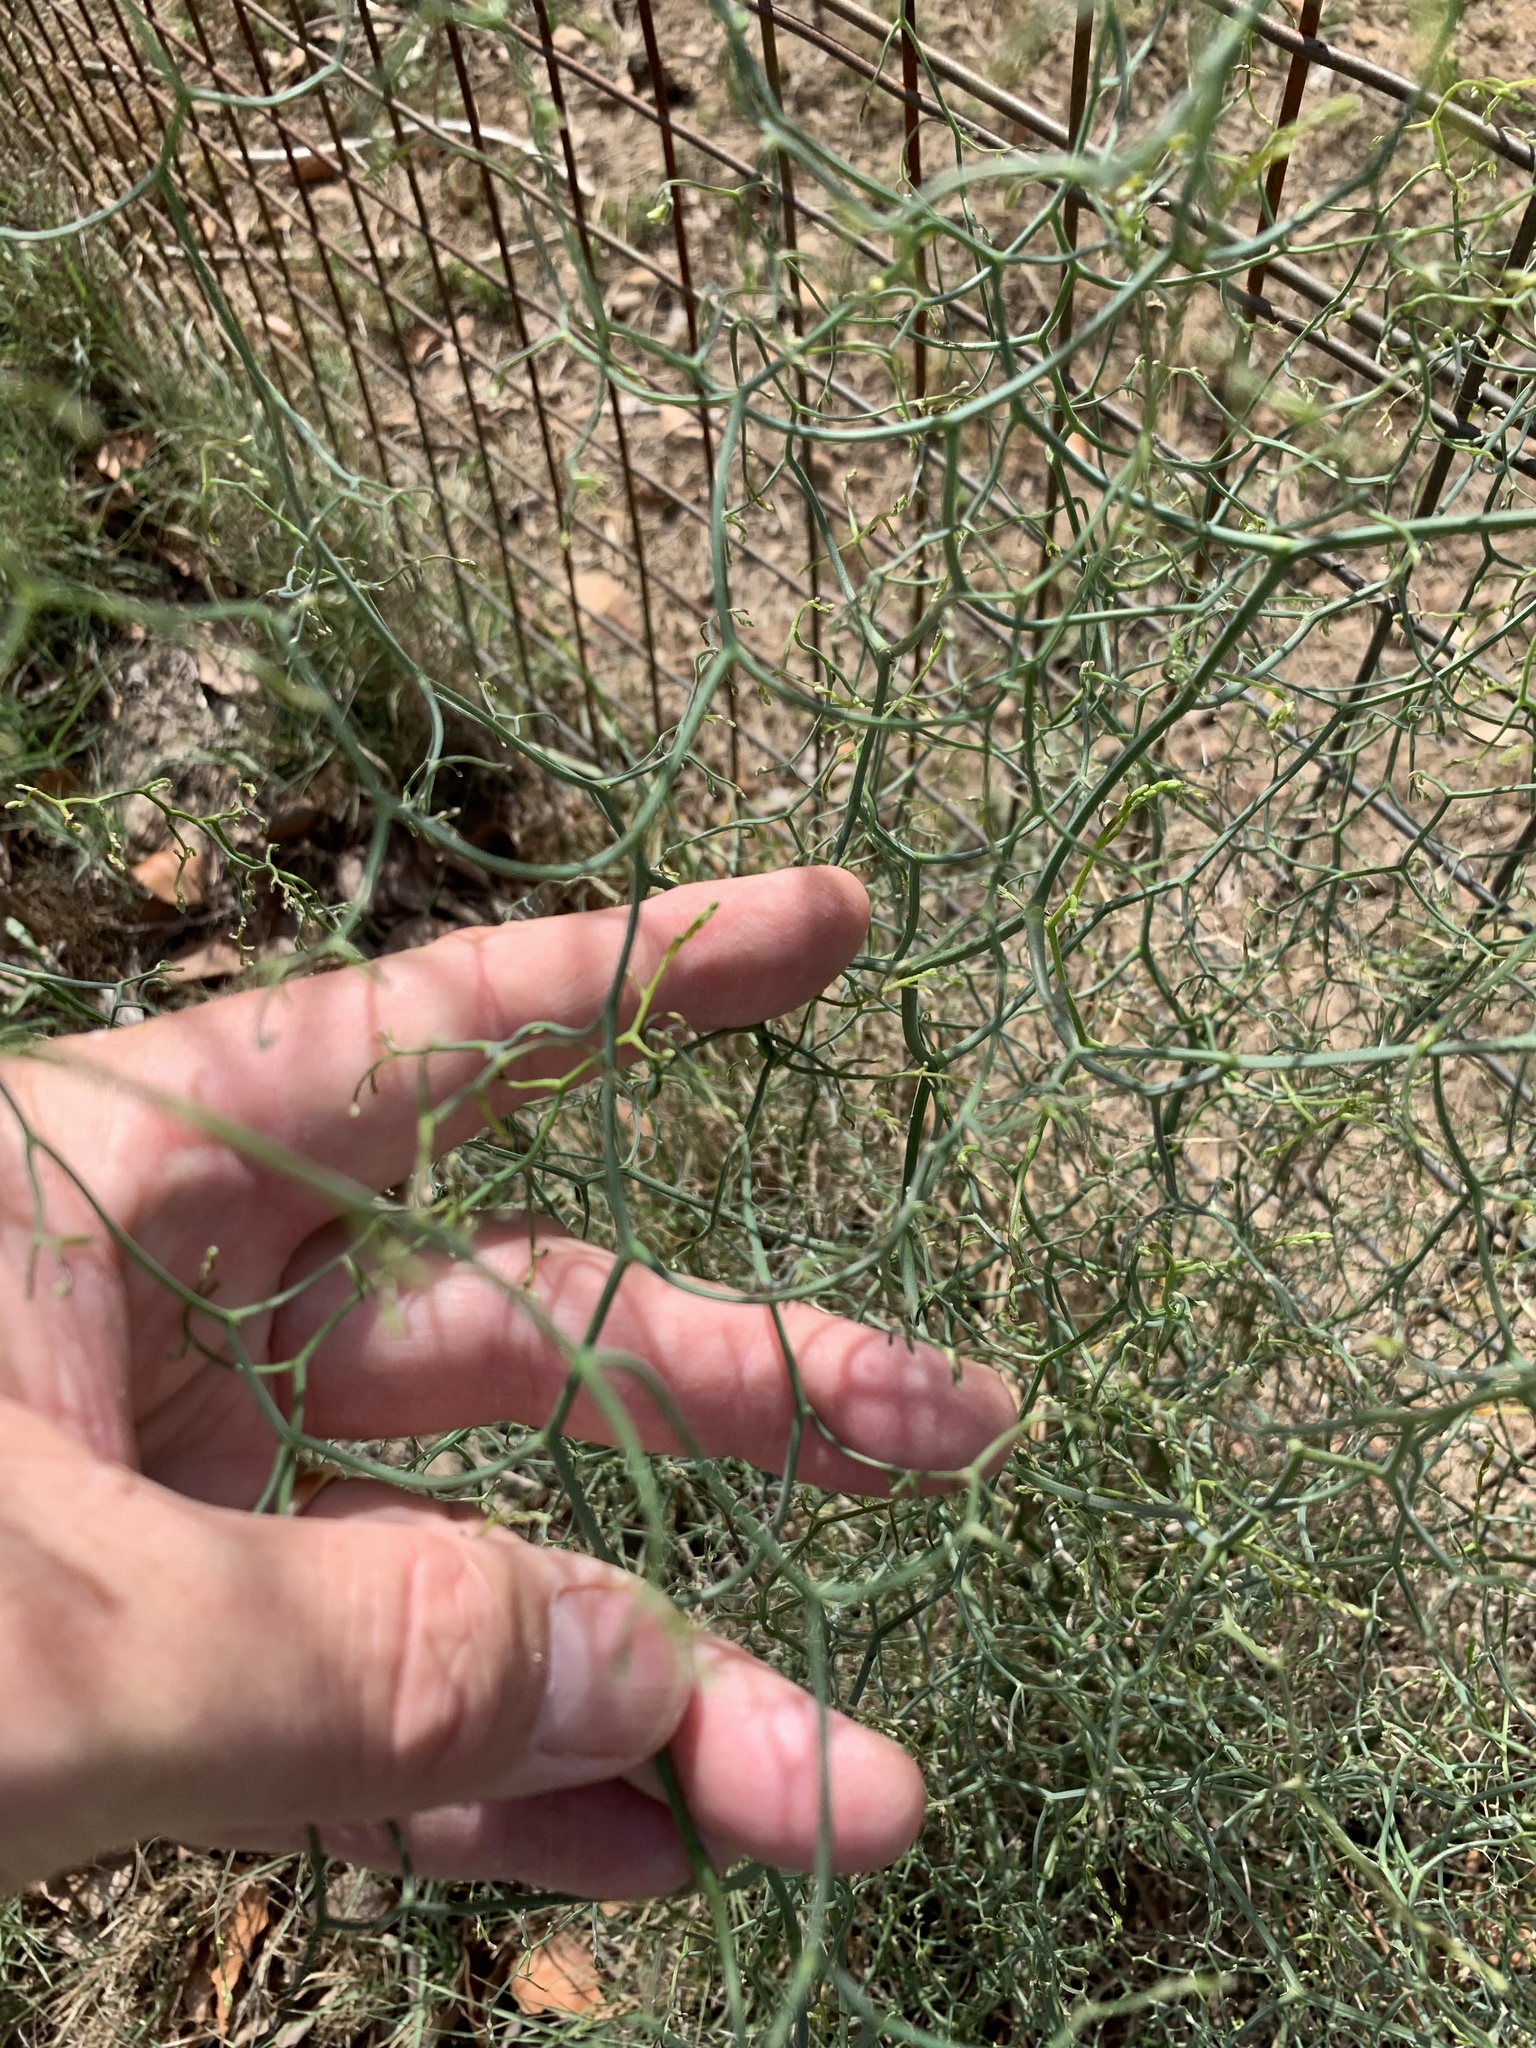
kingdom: Plantae
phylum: Tracheophyta
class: Liliopsida
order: Asparagales
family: Asparagaceae
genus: Asparagus
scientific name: Asparagus declinatus
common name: Bridal-creeper
